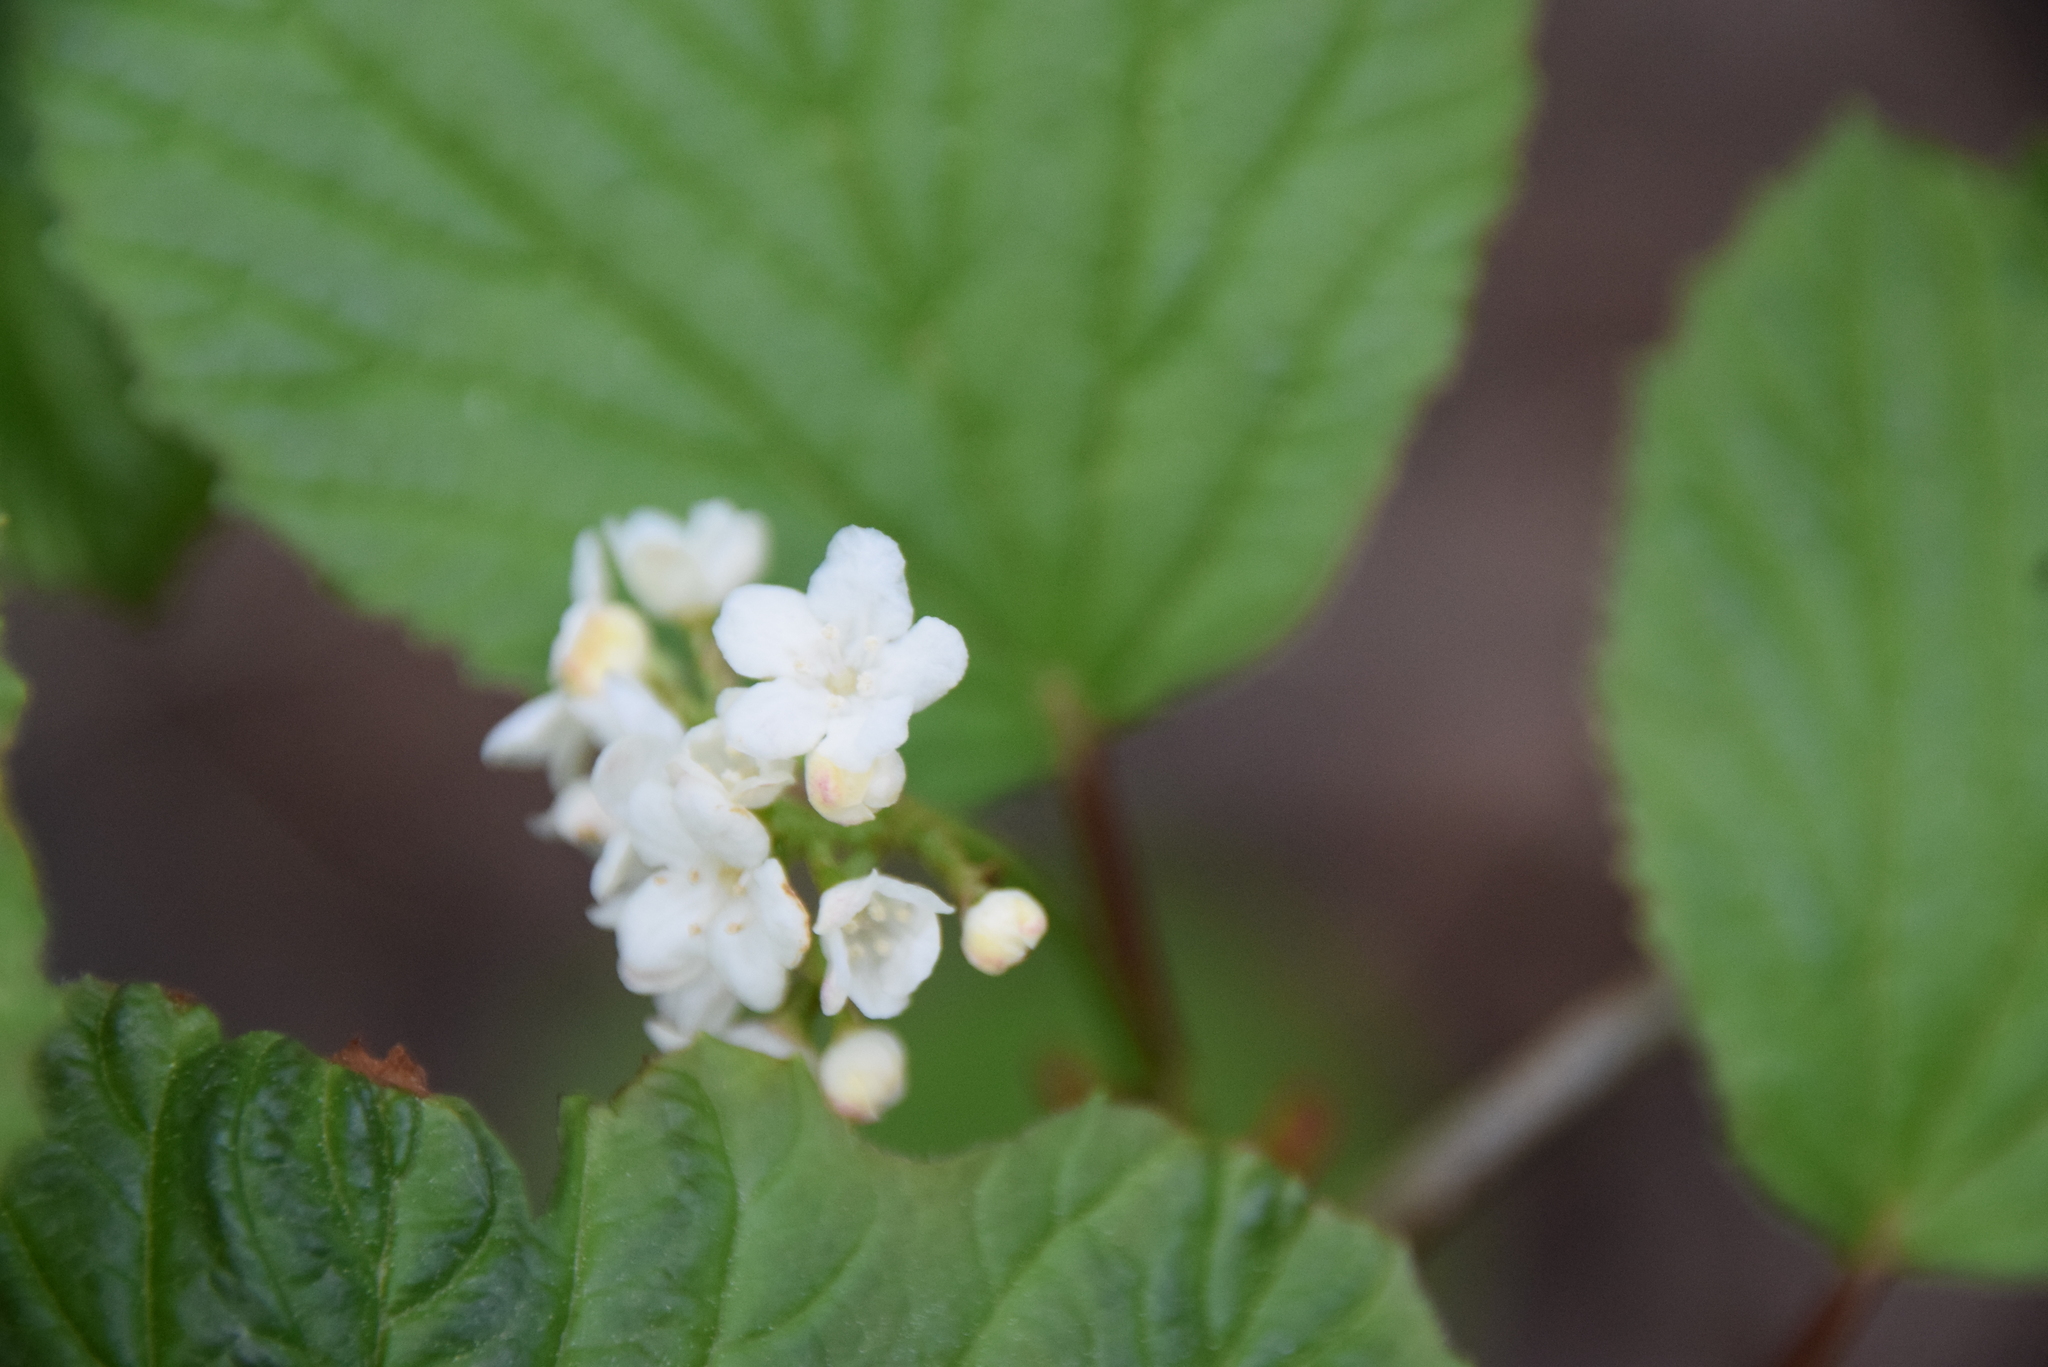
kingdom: Plantae
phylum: Tracheophyta
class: Magnoliopsida
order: Dipsacales
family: Viburnaceae
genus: Viburnum
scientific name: Viburnum edule
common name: Mooseberry
